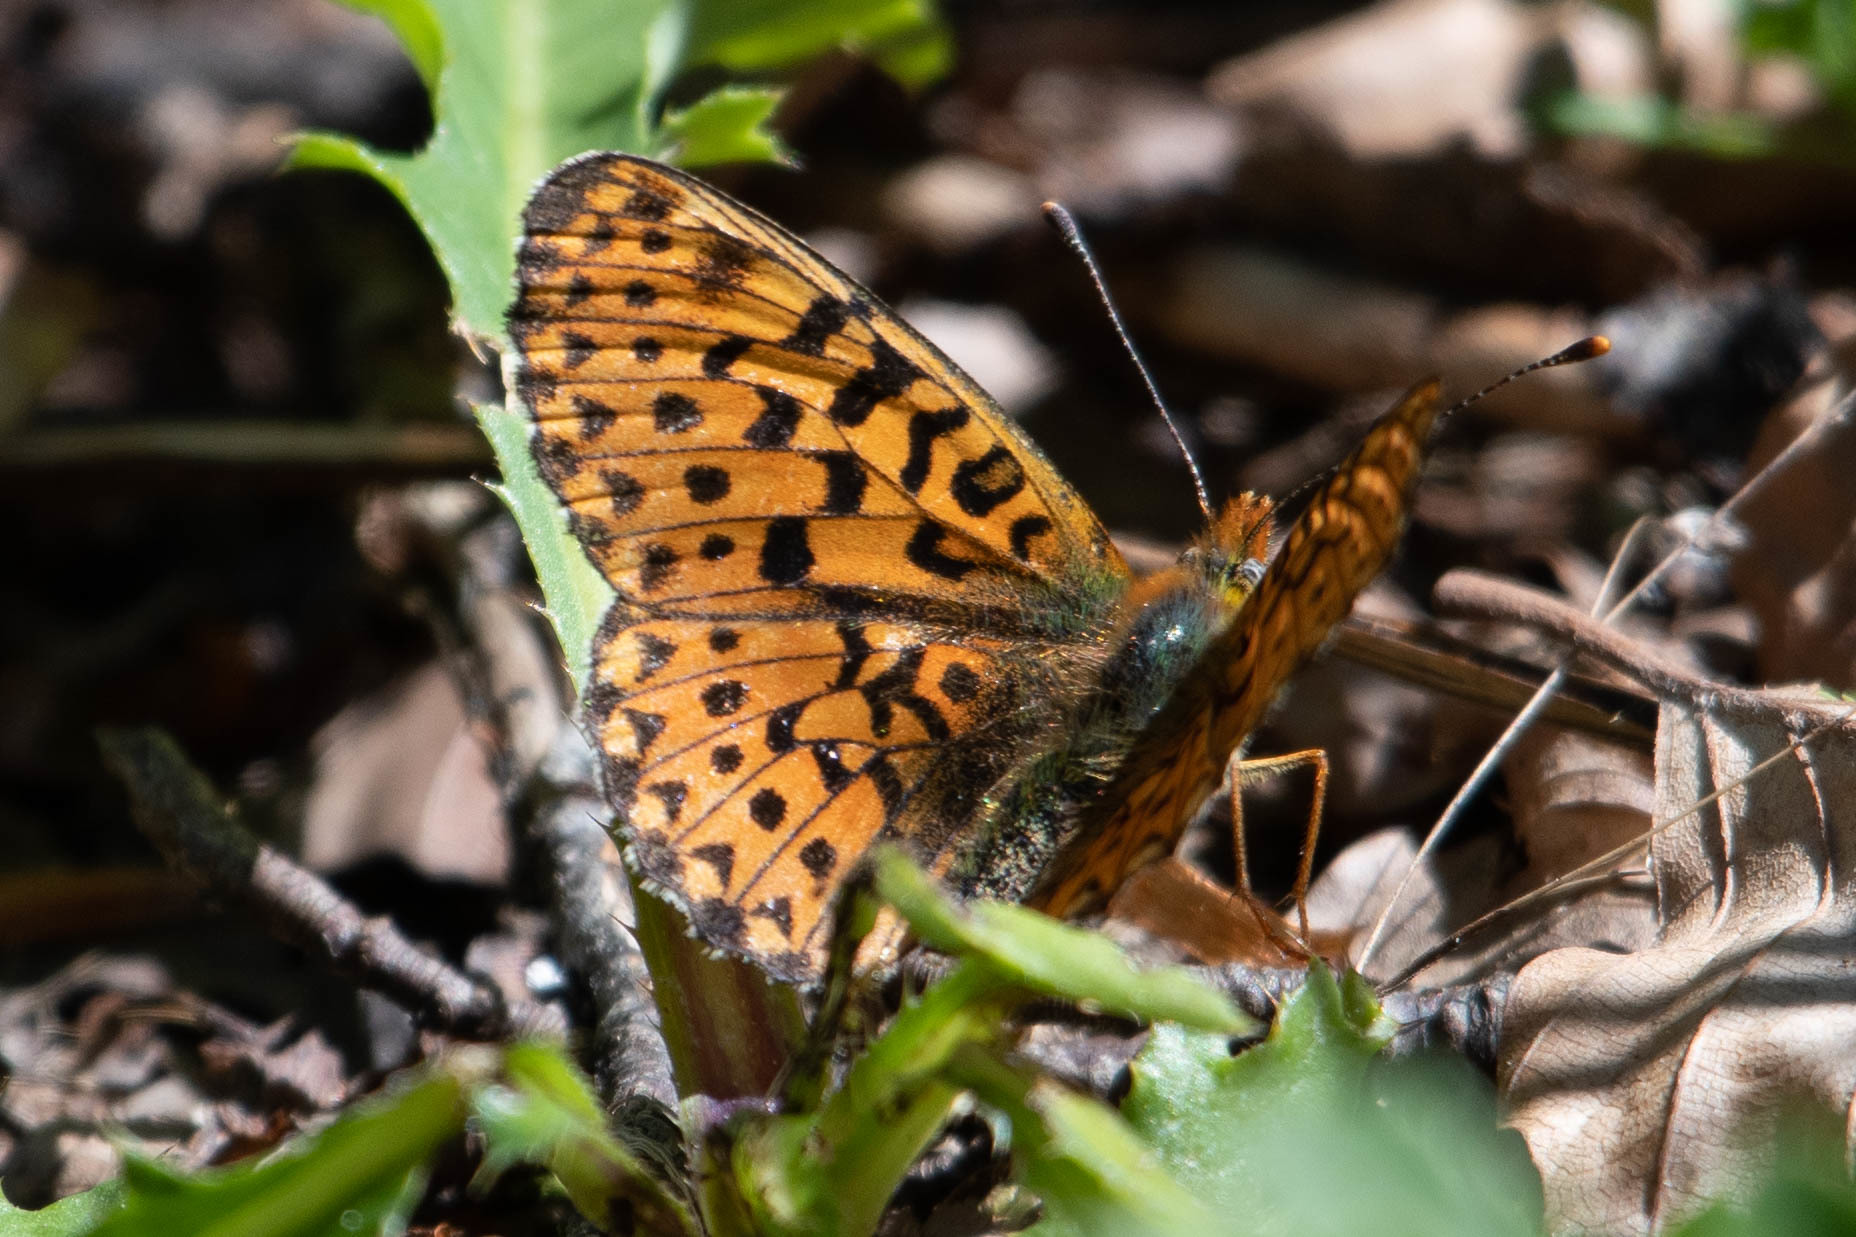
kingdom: Animalia
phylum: Arthropoda
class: Insecta
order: Lepidoptera
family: Nymphalidae
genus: Clossiana
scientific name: Clossiana euphrosyne
